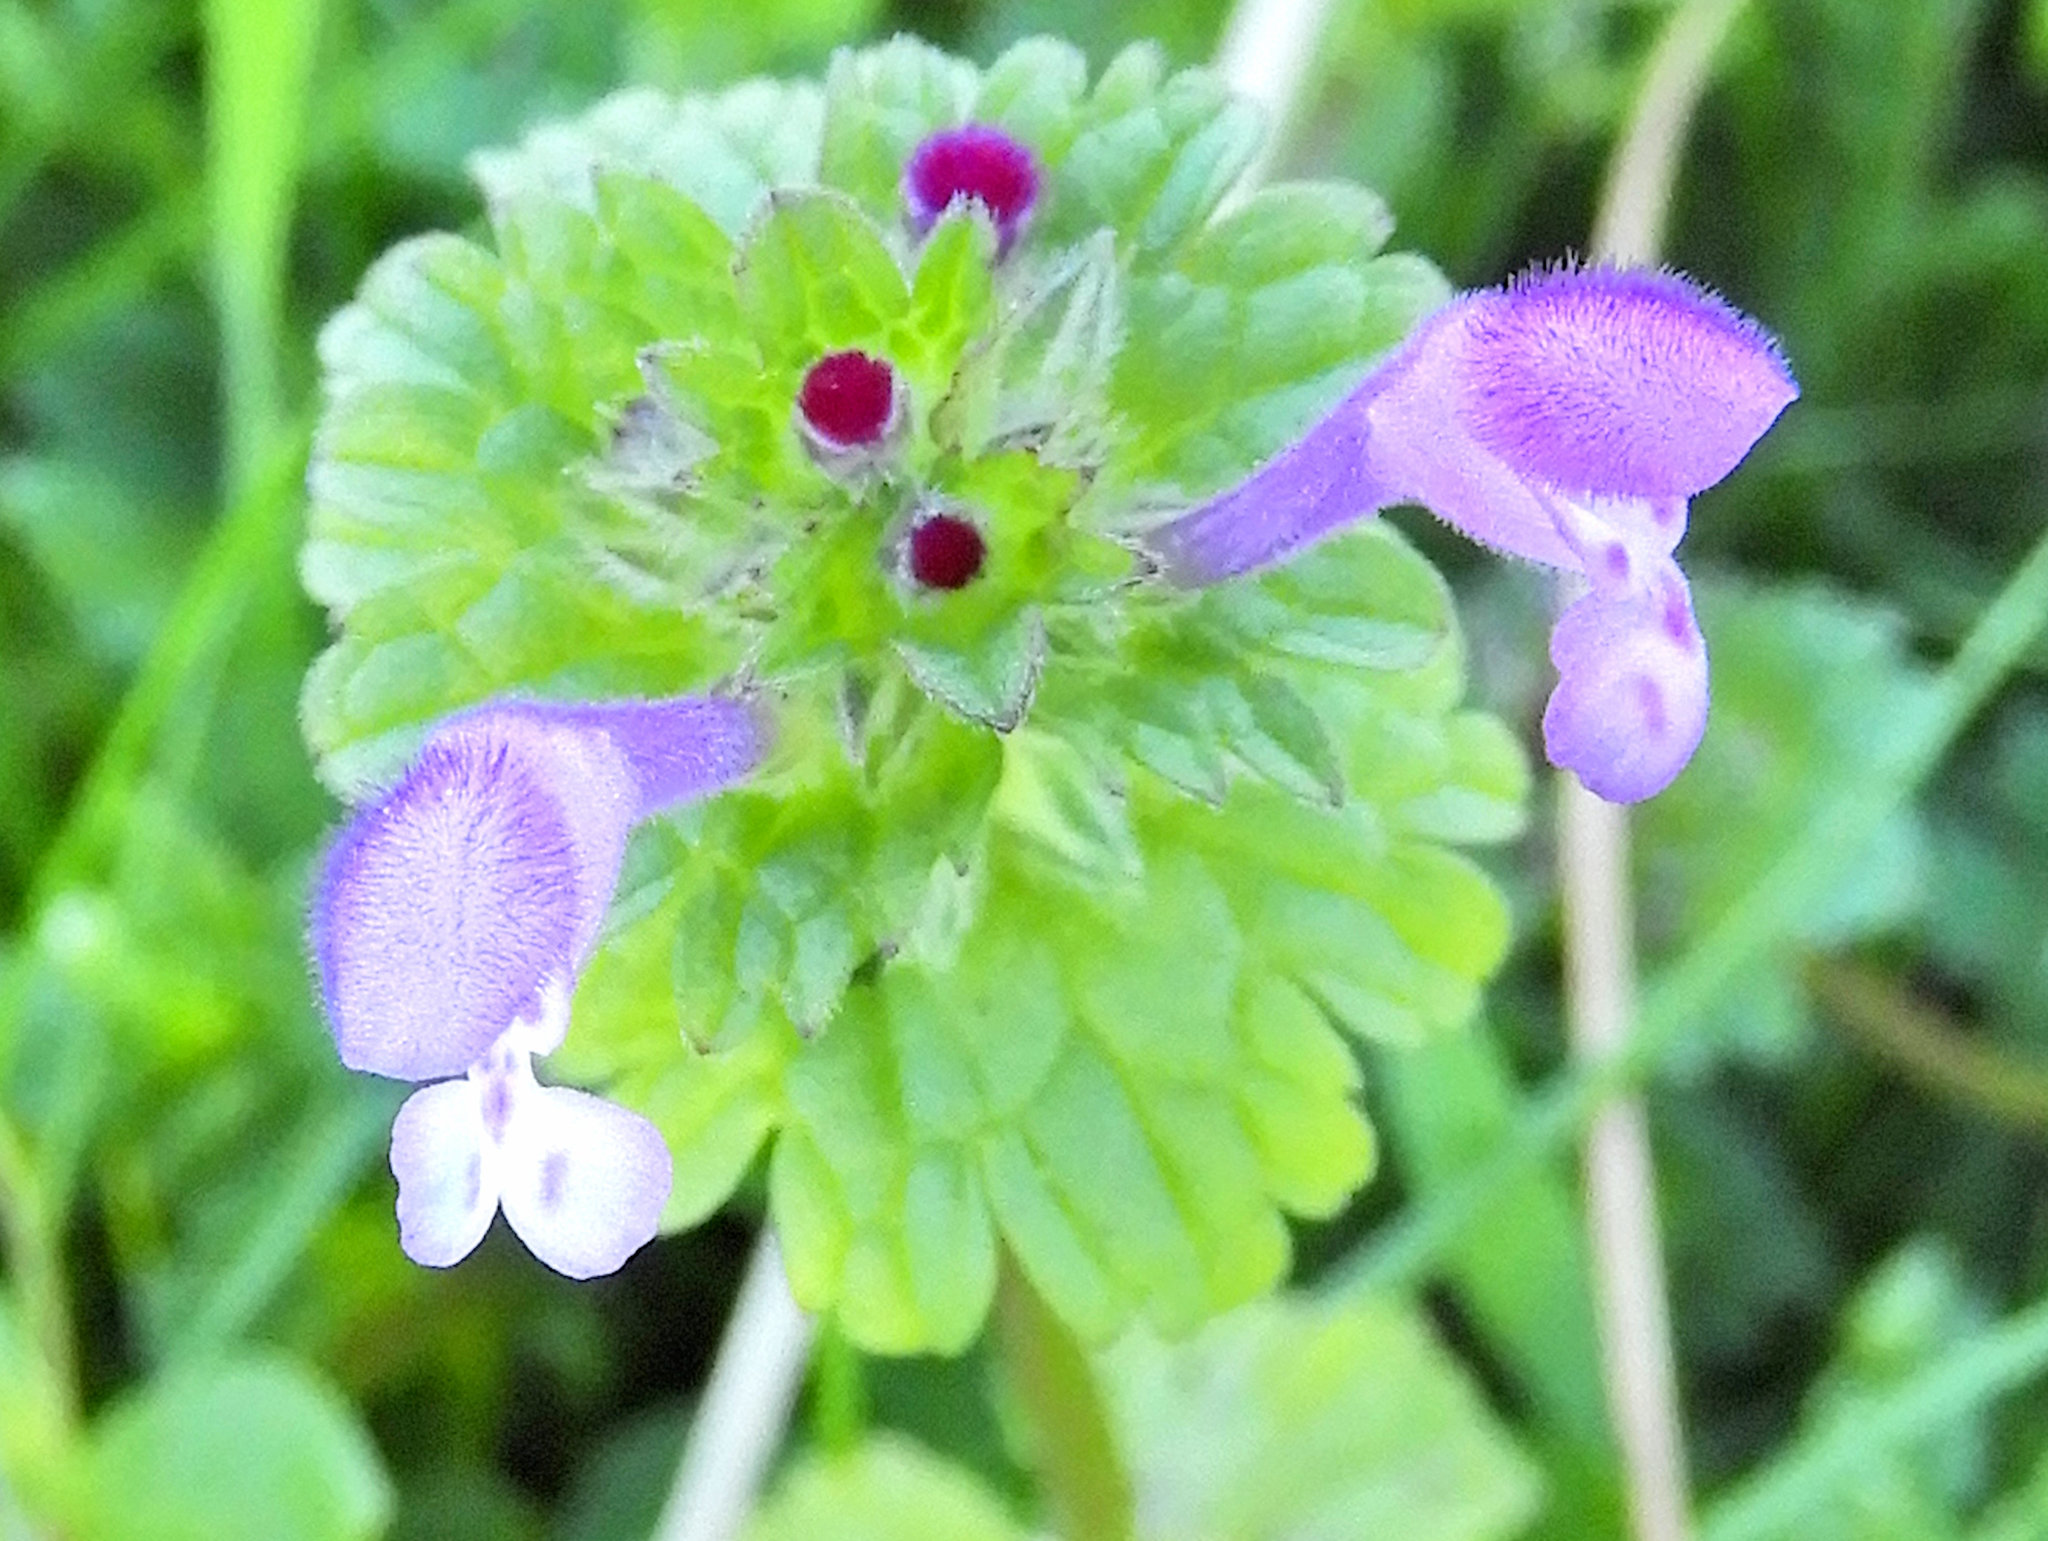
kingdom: Plantae
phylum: Tracheophyta
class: Magnoliopsida
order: Lamiales
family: Lamiaceae
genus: Lamium
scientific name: Lamium amplexicaule
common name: Henbit dead-nettle
